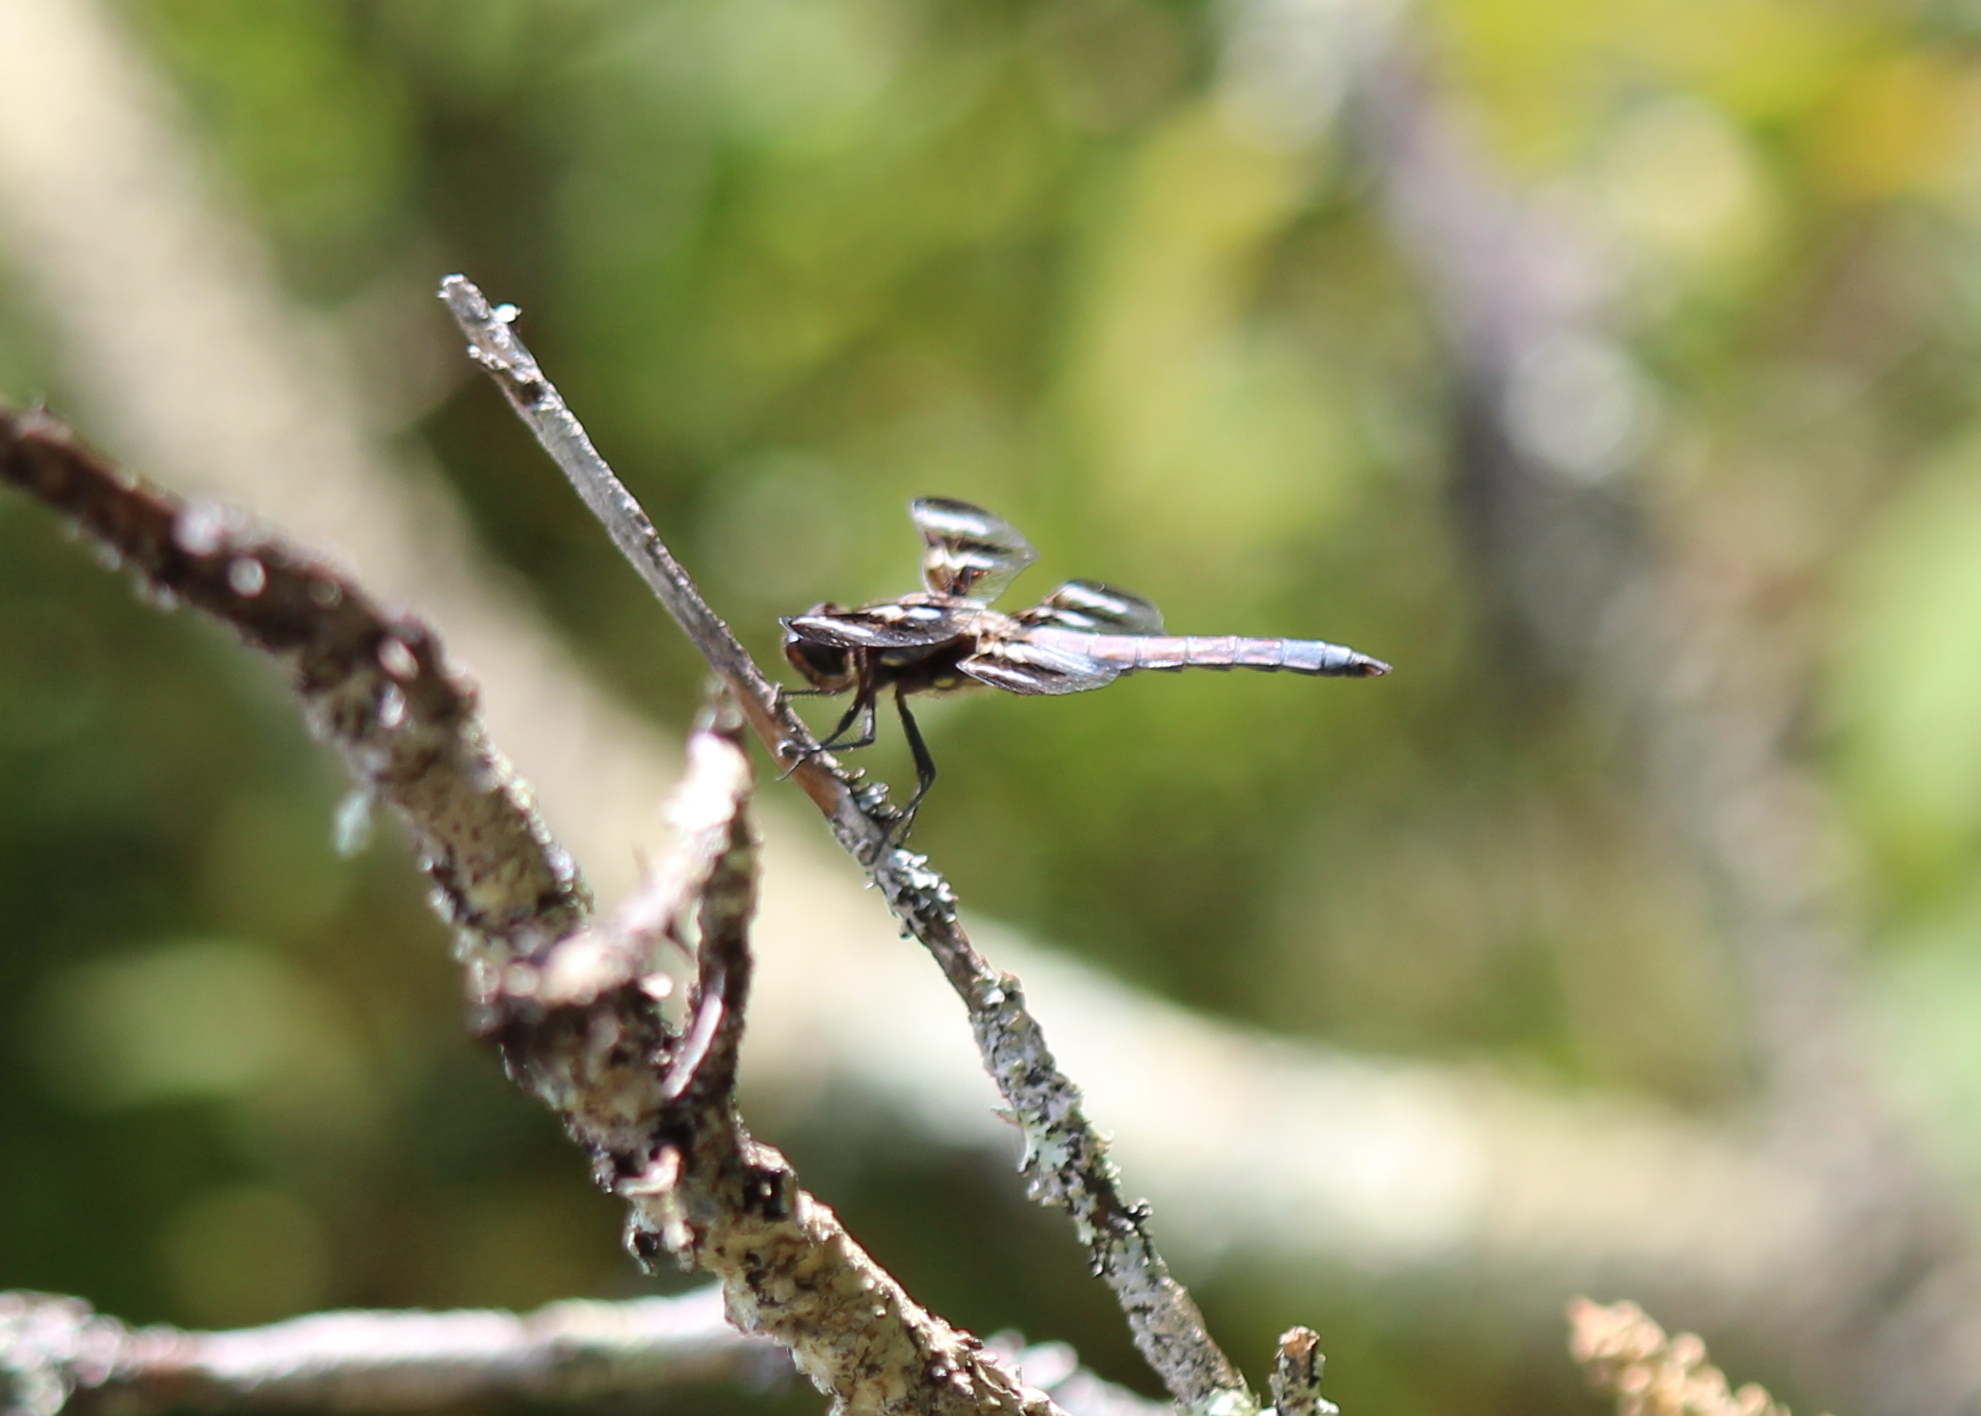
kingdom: Animalia
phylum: Arthropoda
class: Insecta
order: Odonata
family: Libellulidae
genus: Libellula
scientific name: Libellula pulchella
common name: Twelve-spotted skimmer
